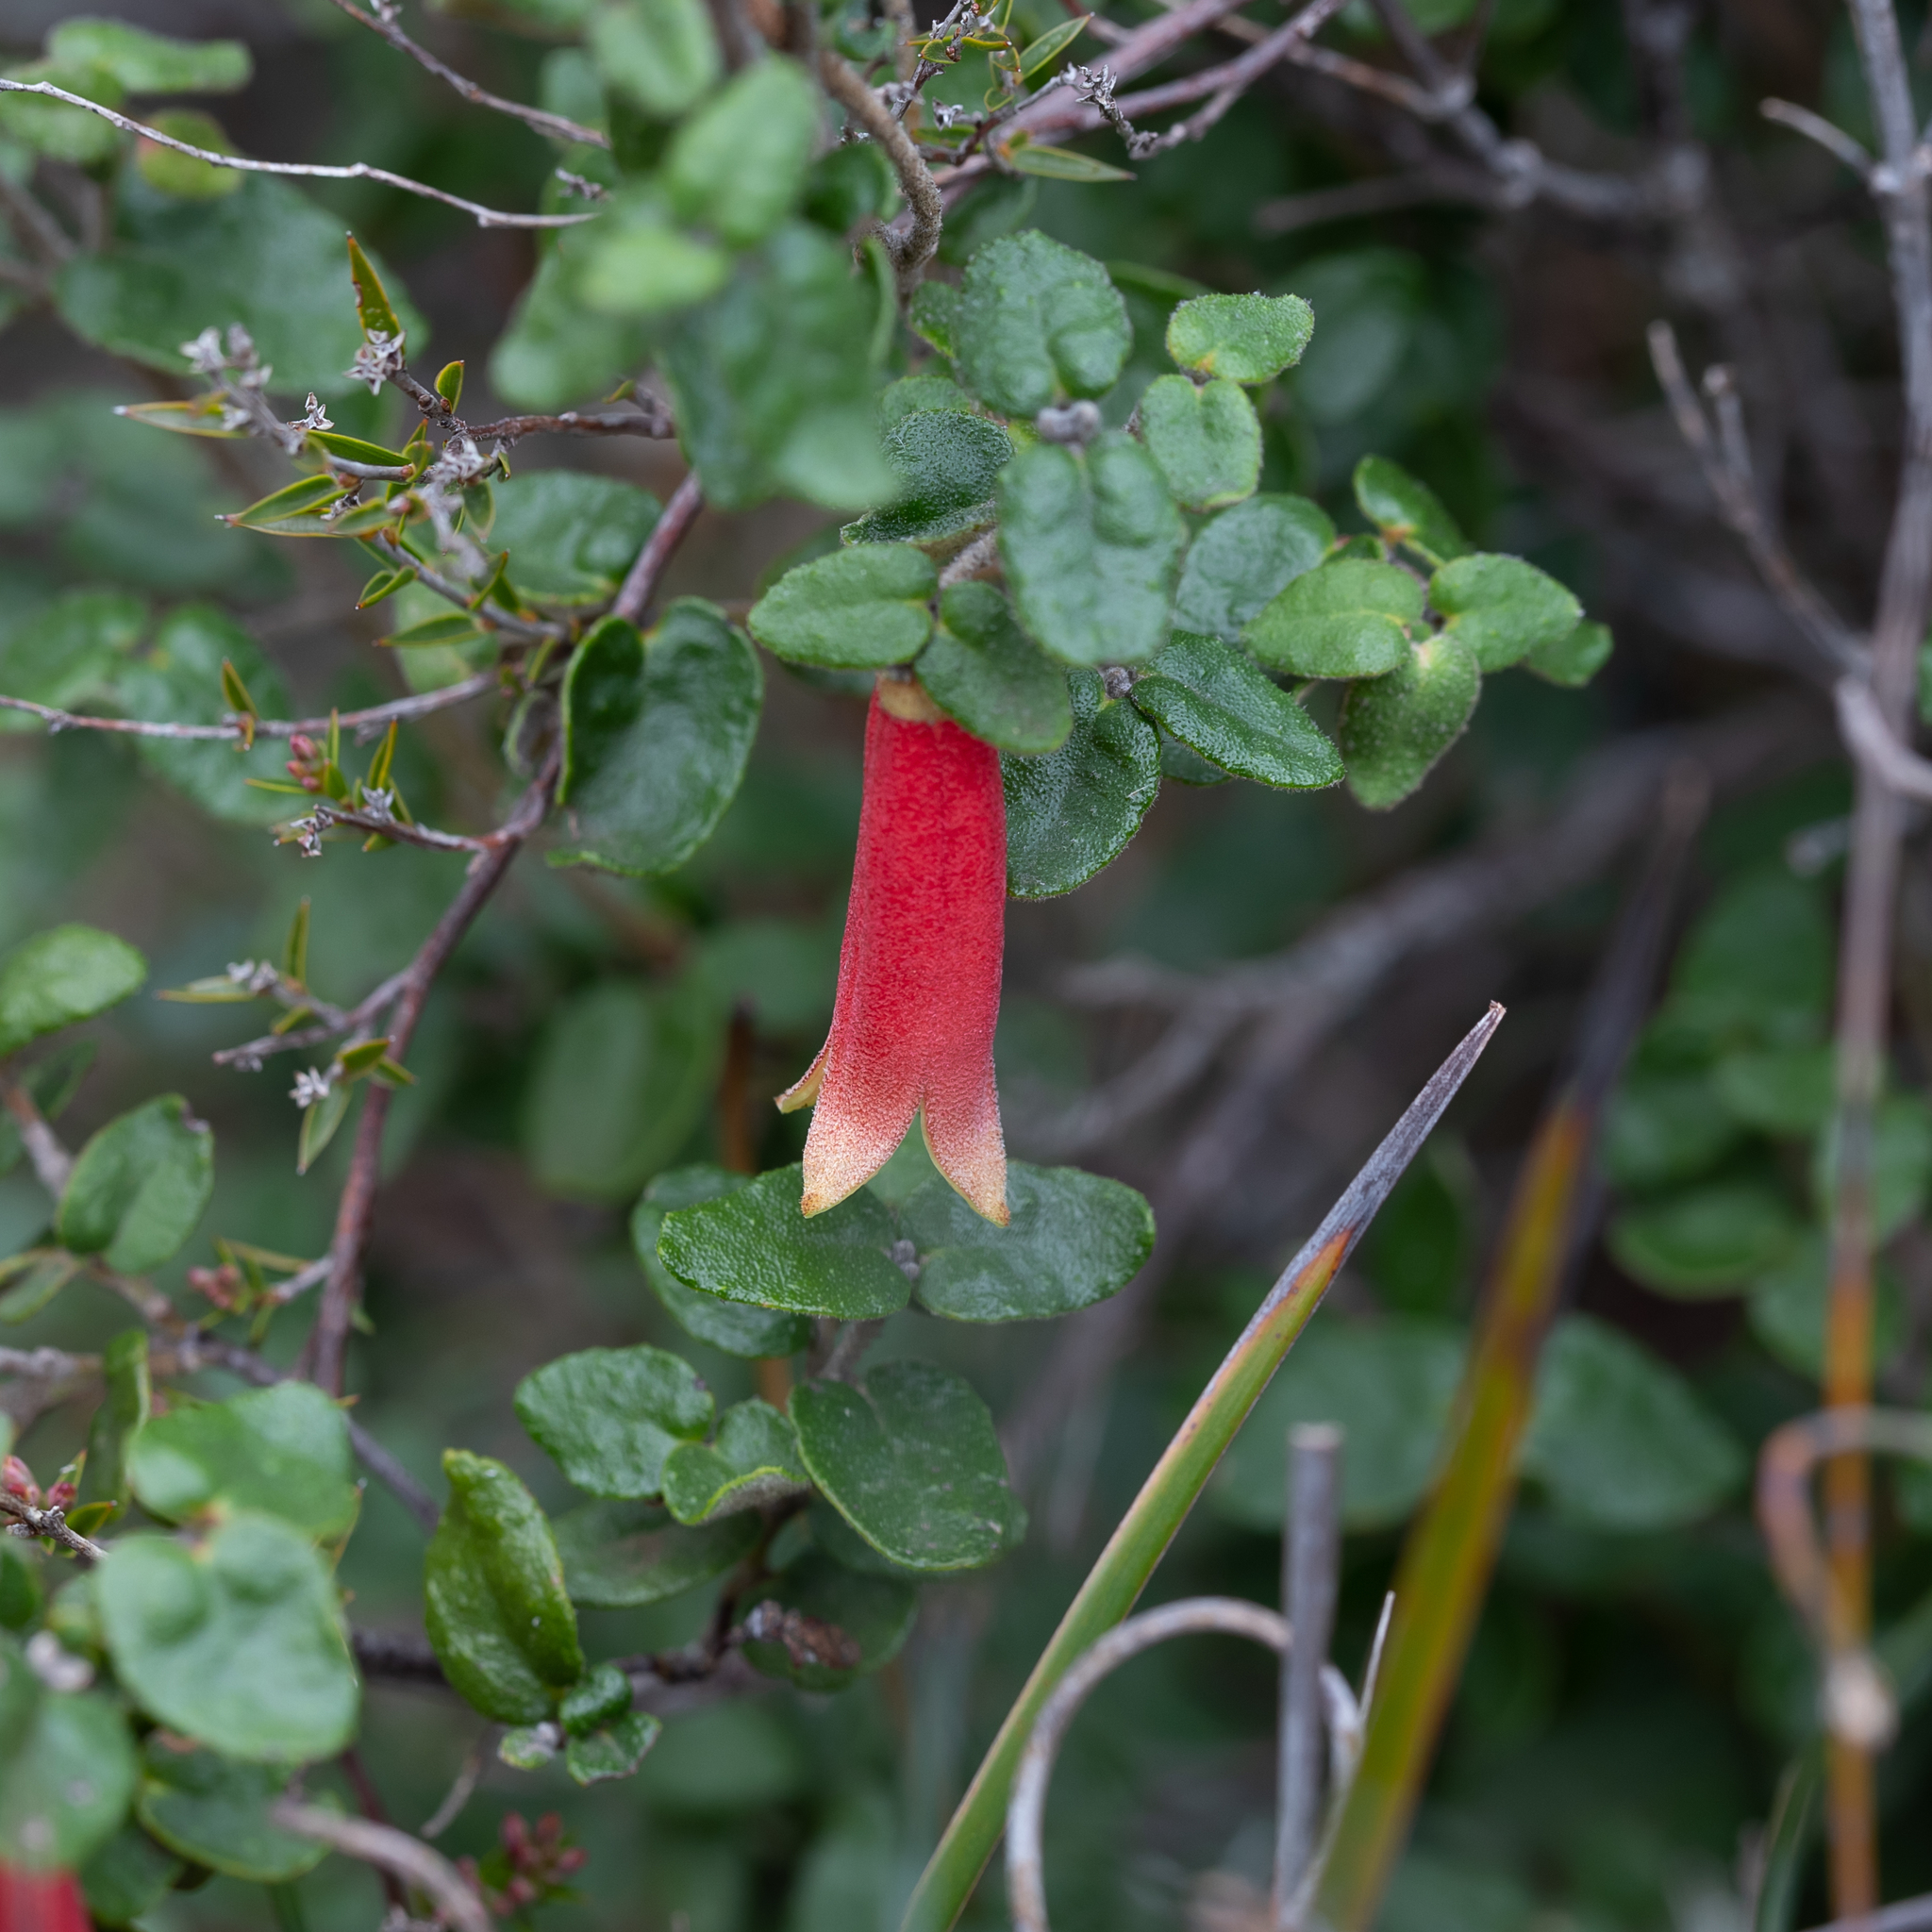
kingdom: Plantae
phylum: Tracheophyta
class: Magnoliopsida
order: Sapindales
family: Rutaceae
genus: Correa
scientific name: Correa reflexa
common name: Common correa
